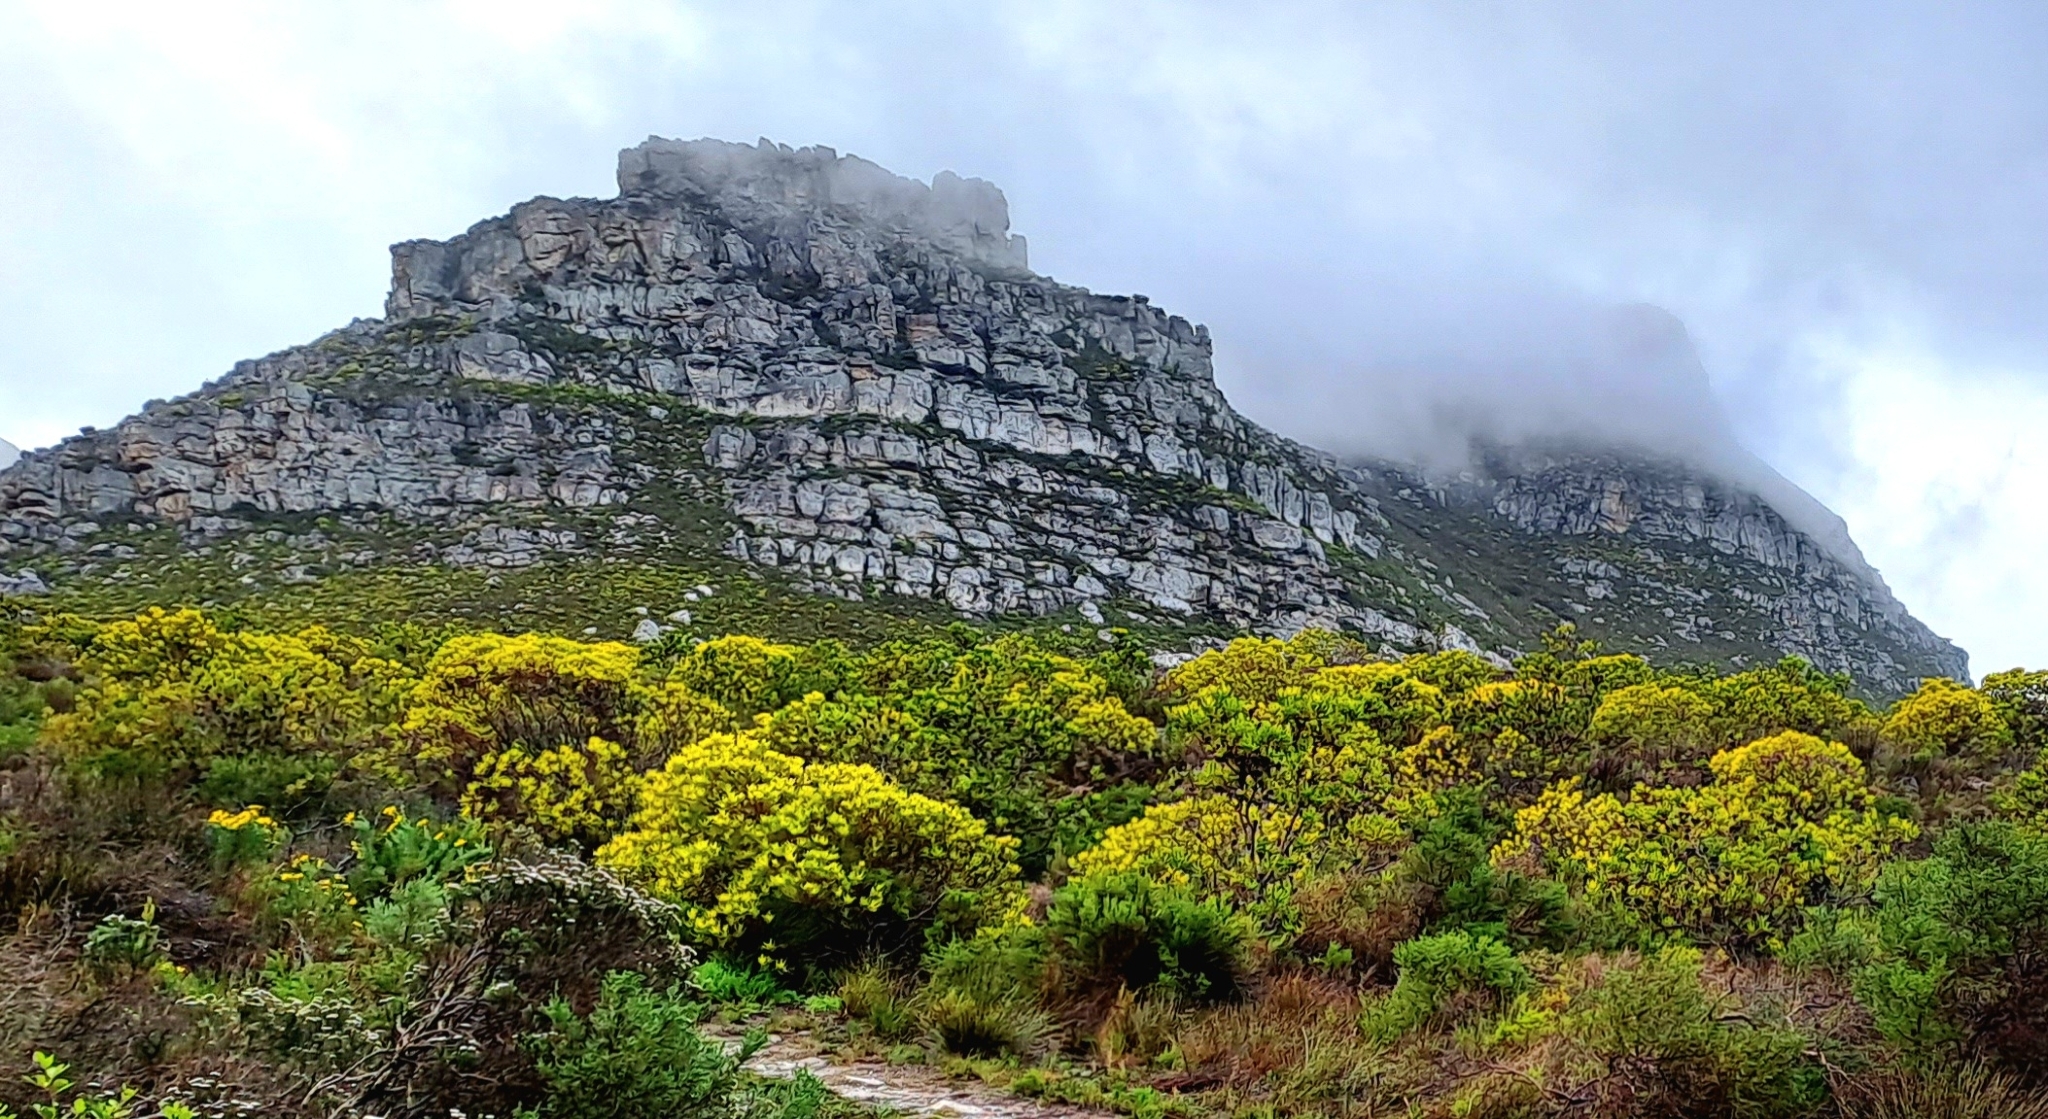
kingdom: Plantae
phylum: Tracheophyta
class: Magnoliopsida
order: Proteales
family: Proteaceae
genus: Leucadendron
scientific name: Leucadendron salignum
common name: Common sunshine conebush
